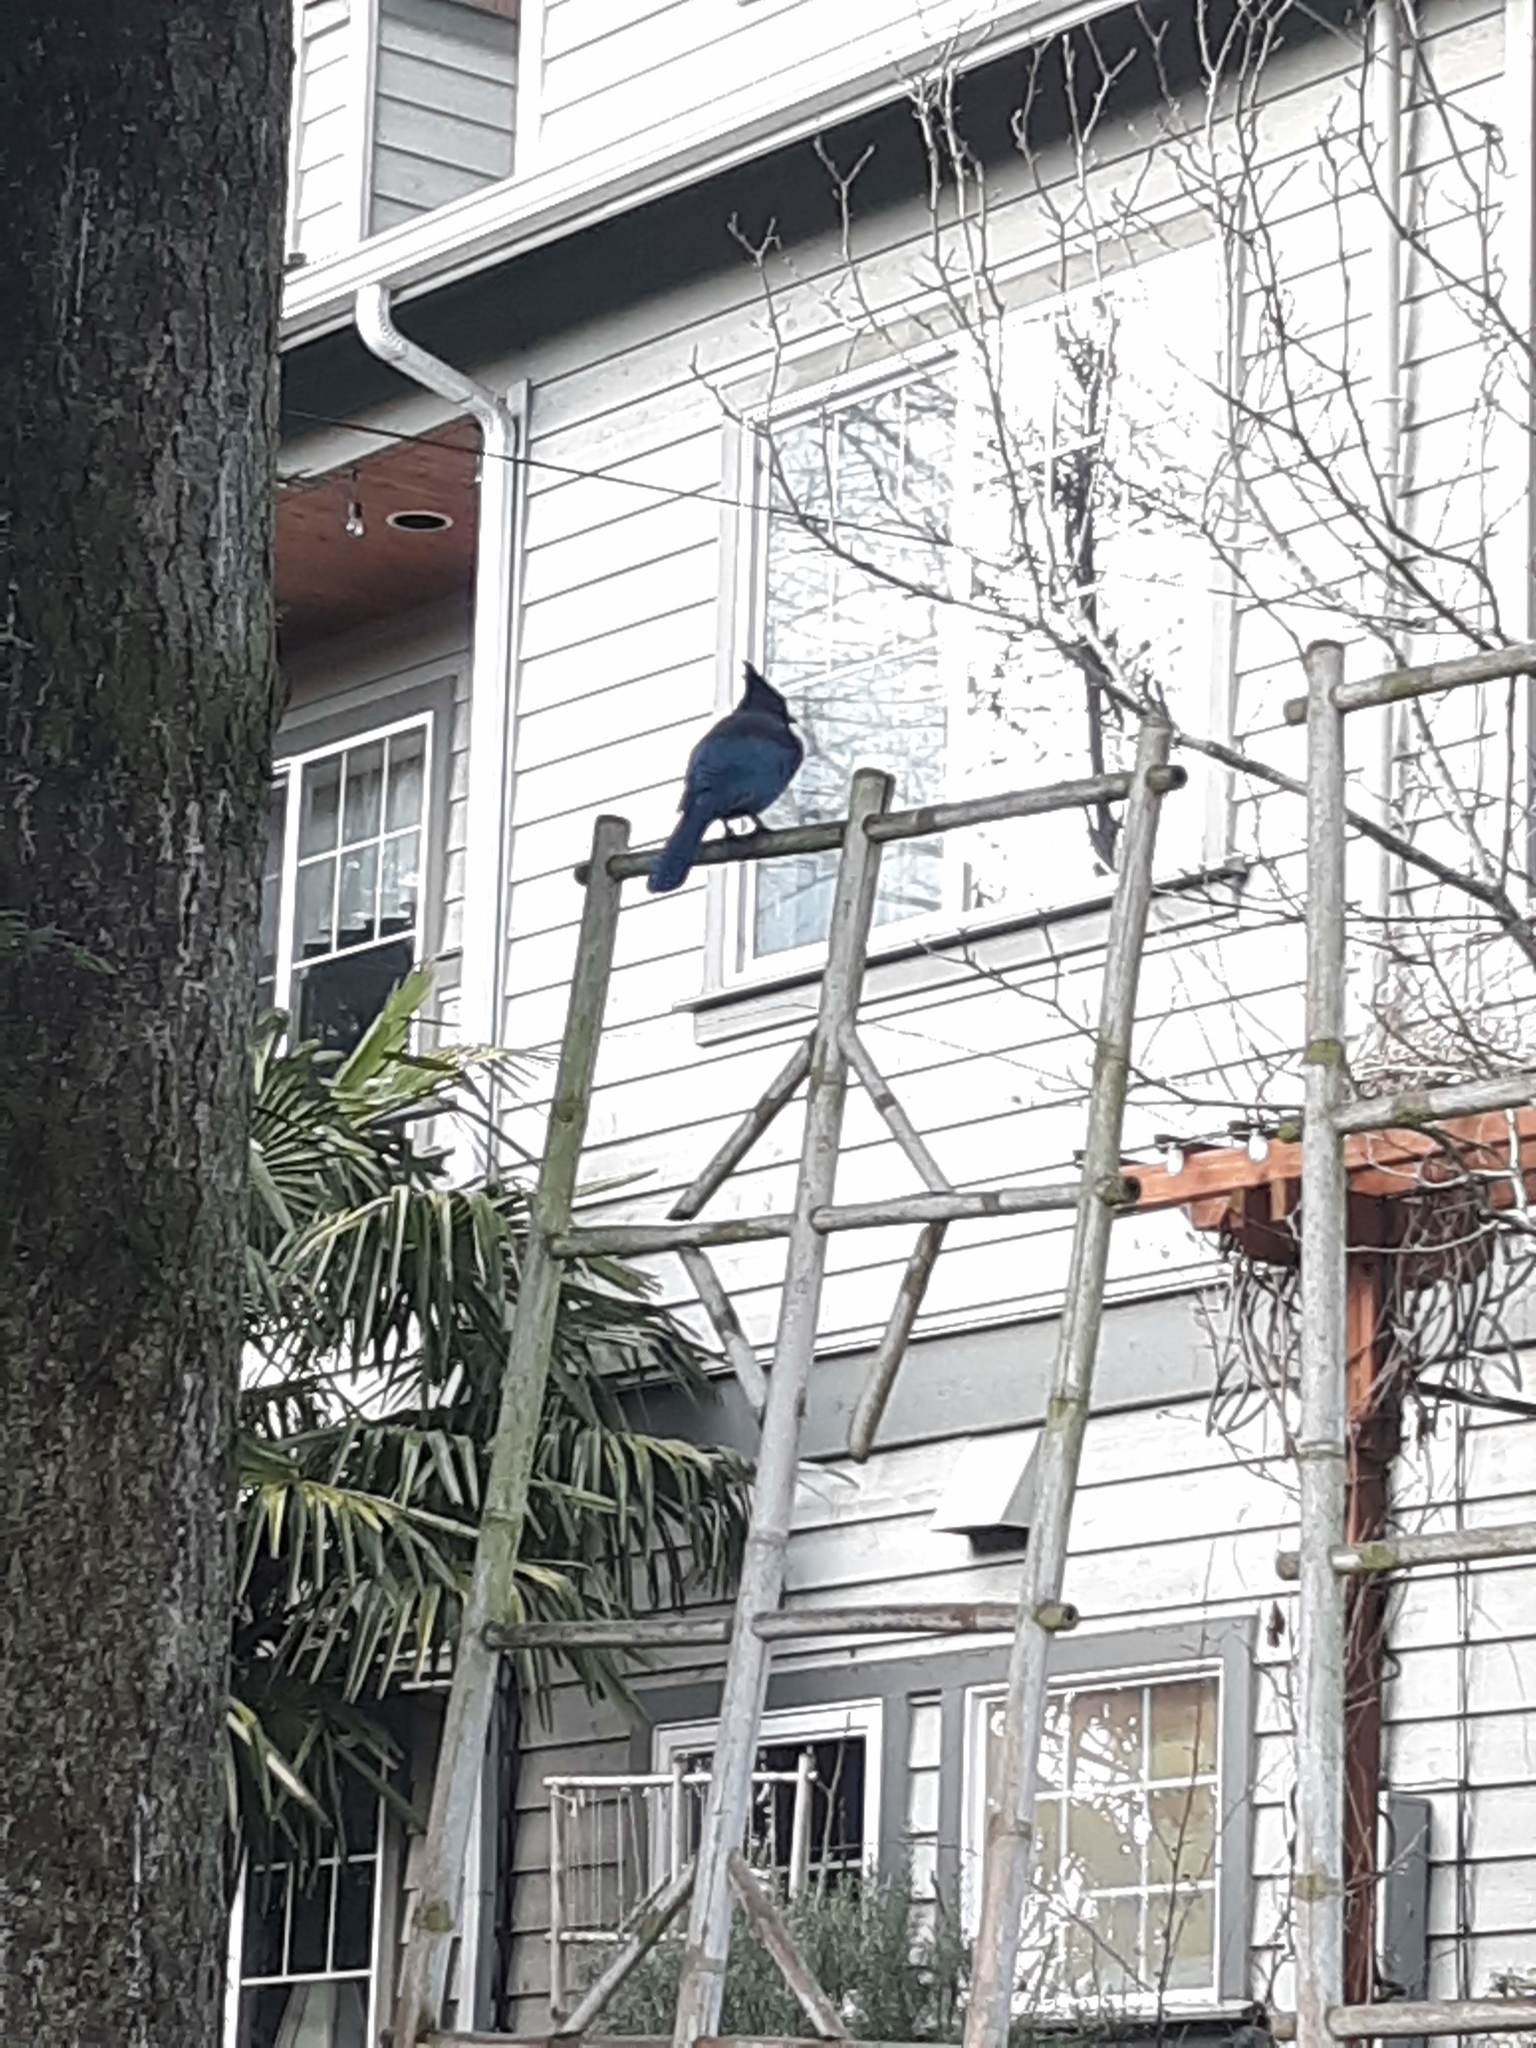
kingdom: Animalia
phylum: Chordata
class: Aves
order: Passeriformes
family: Corvidae
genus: Cyanocitta
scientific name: Cyanocitta stelleri
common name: Steller's jay
